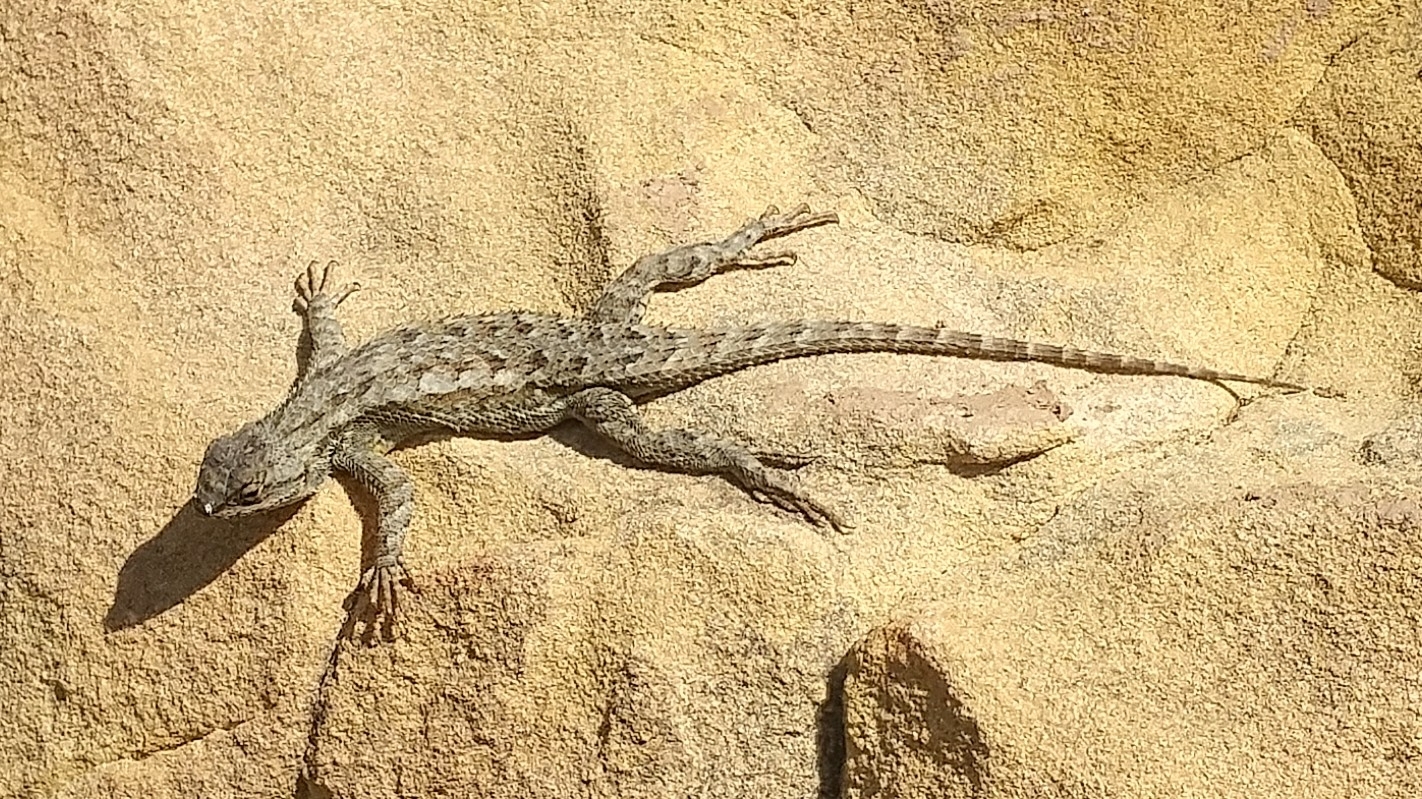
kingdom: Animalia
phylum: Chordata
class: Squamata
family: Phrynosomatidae
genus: Sceloporus
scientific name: Sceloporus occidentalis
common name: Western fence lizard
